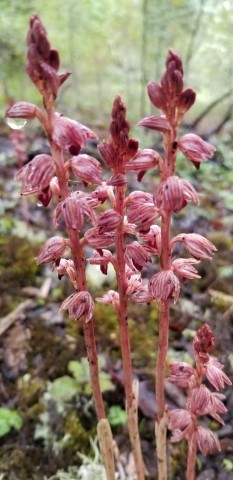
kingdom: Plantae
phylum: Tracheophyta
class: Liliopsida
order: Asparagales
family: Orchidaceae
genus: Corallorhiza
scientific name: Corallorhiza striata
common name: Hooded coralroot
